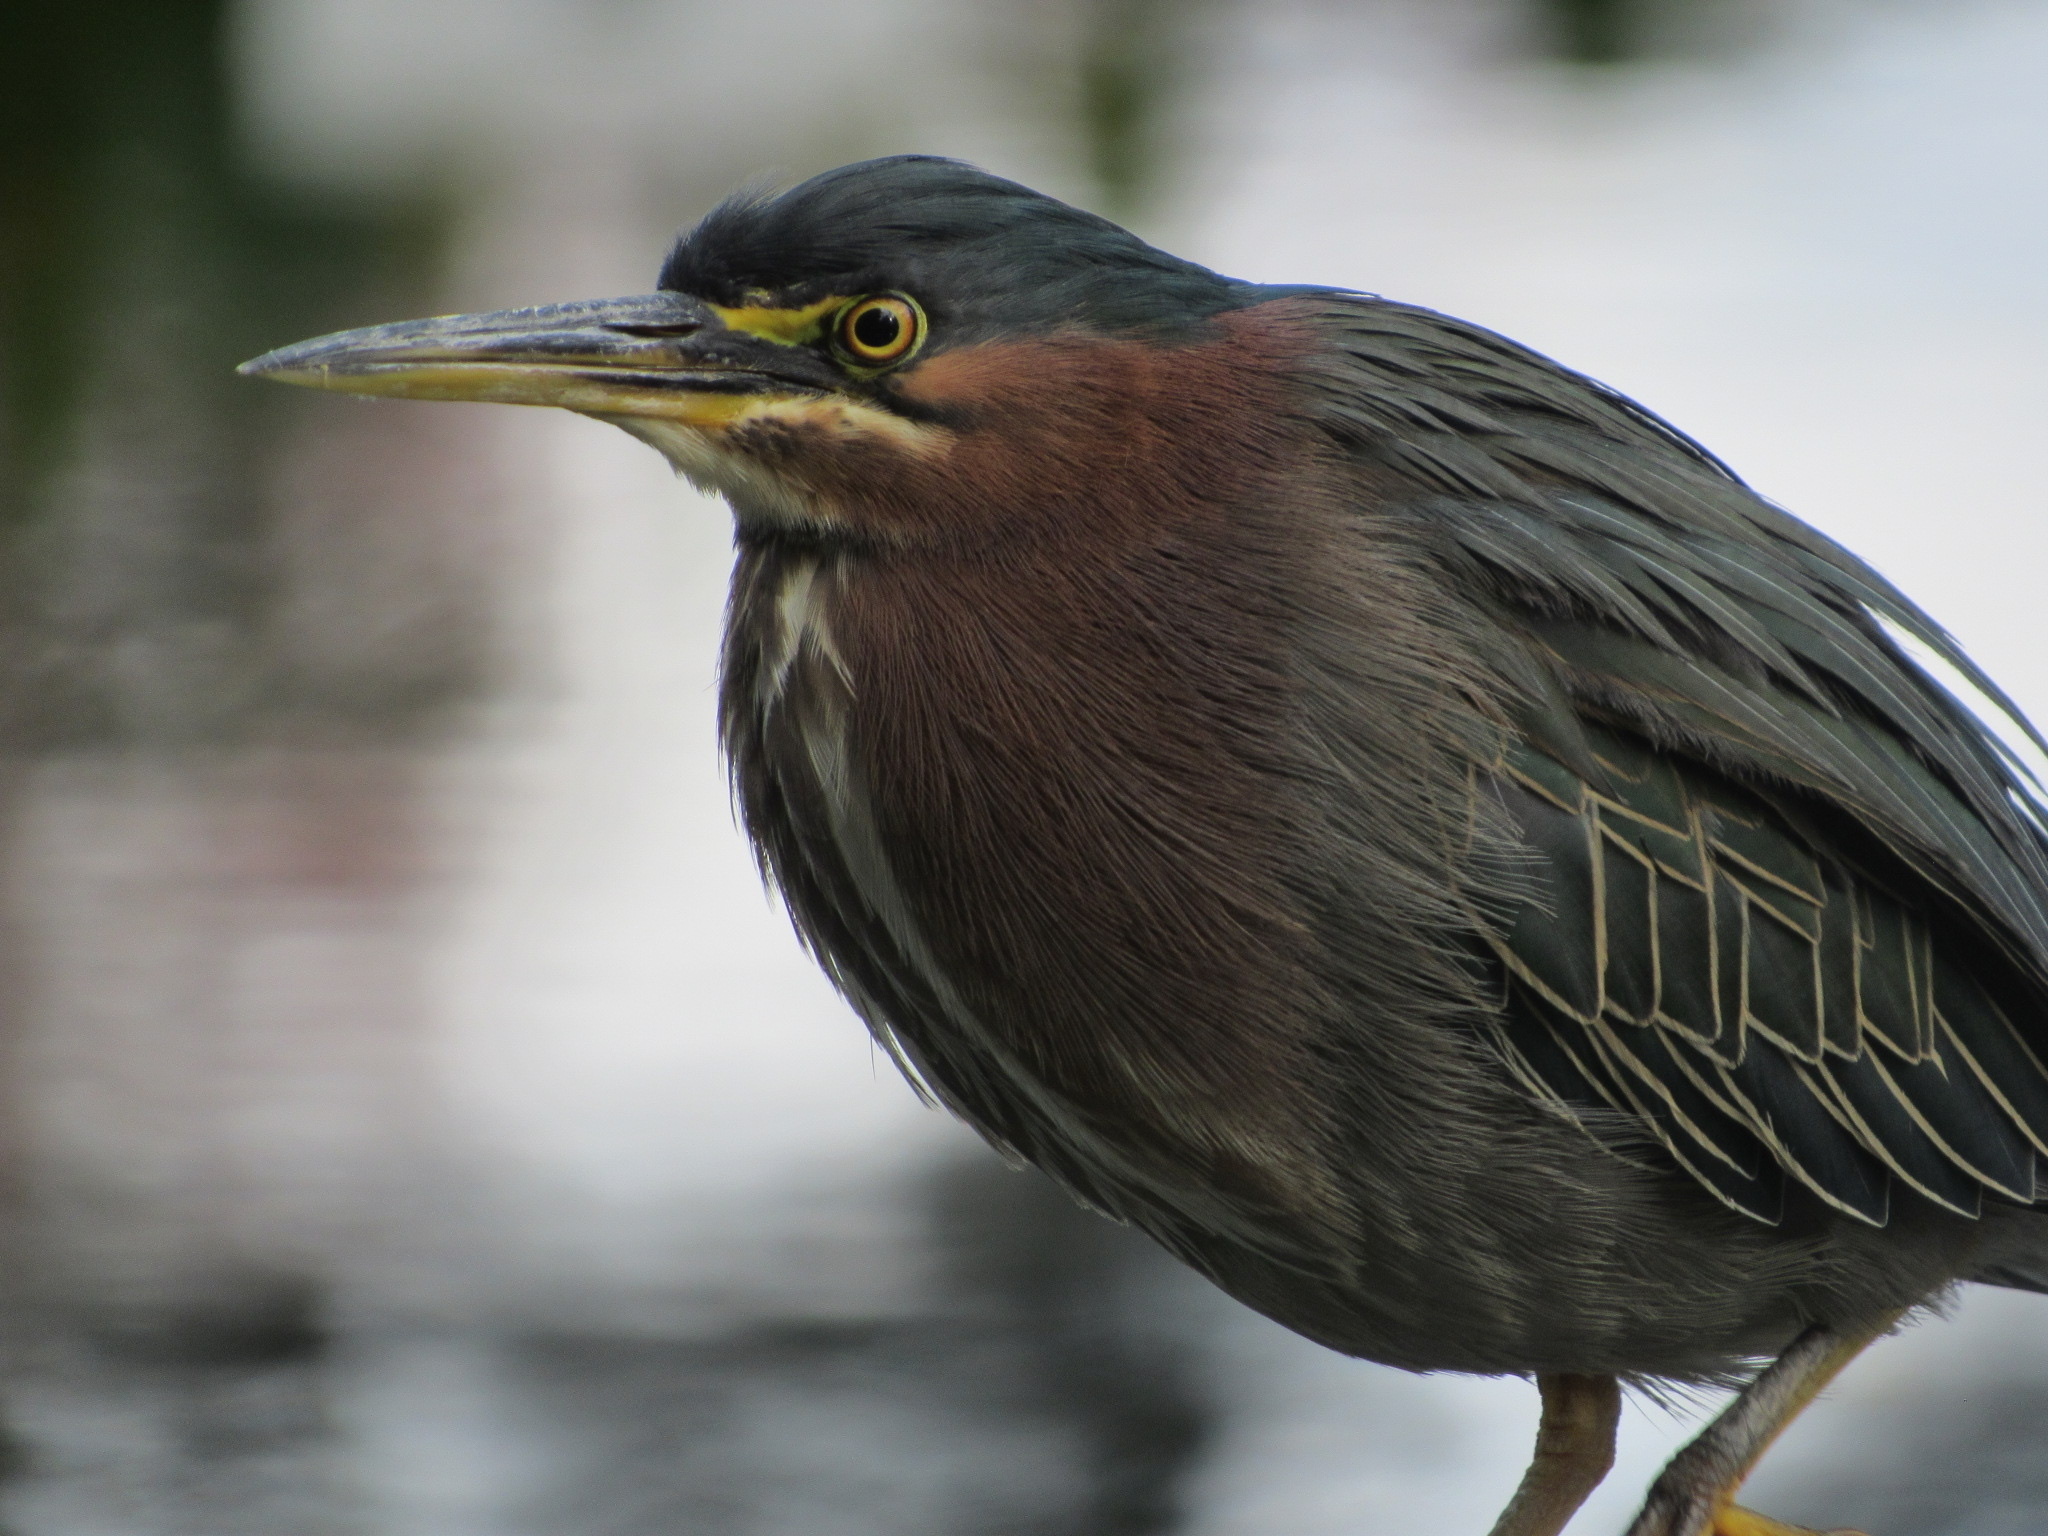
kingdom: Animalia
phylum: Chordata
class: Aves
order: Pelecaniformes
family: Ardeidae
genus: Butorides
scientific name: Butorides virescens
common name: Green heron
